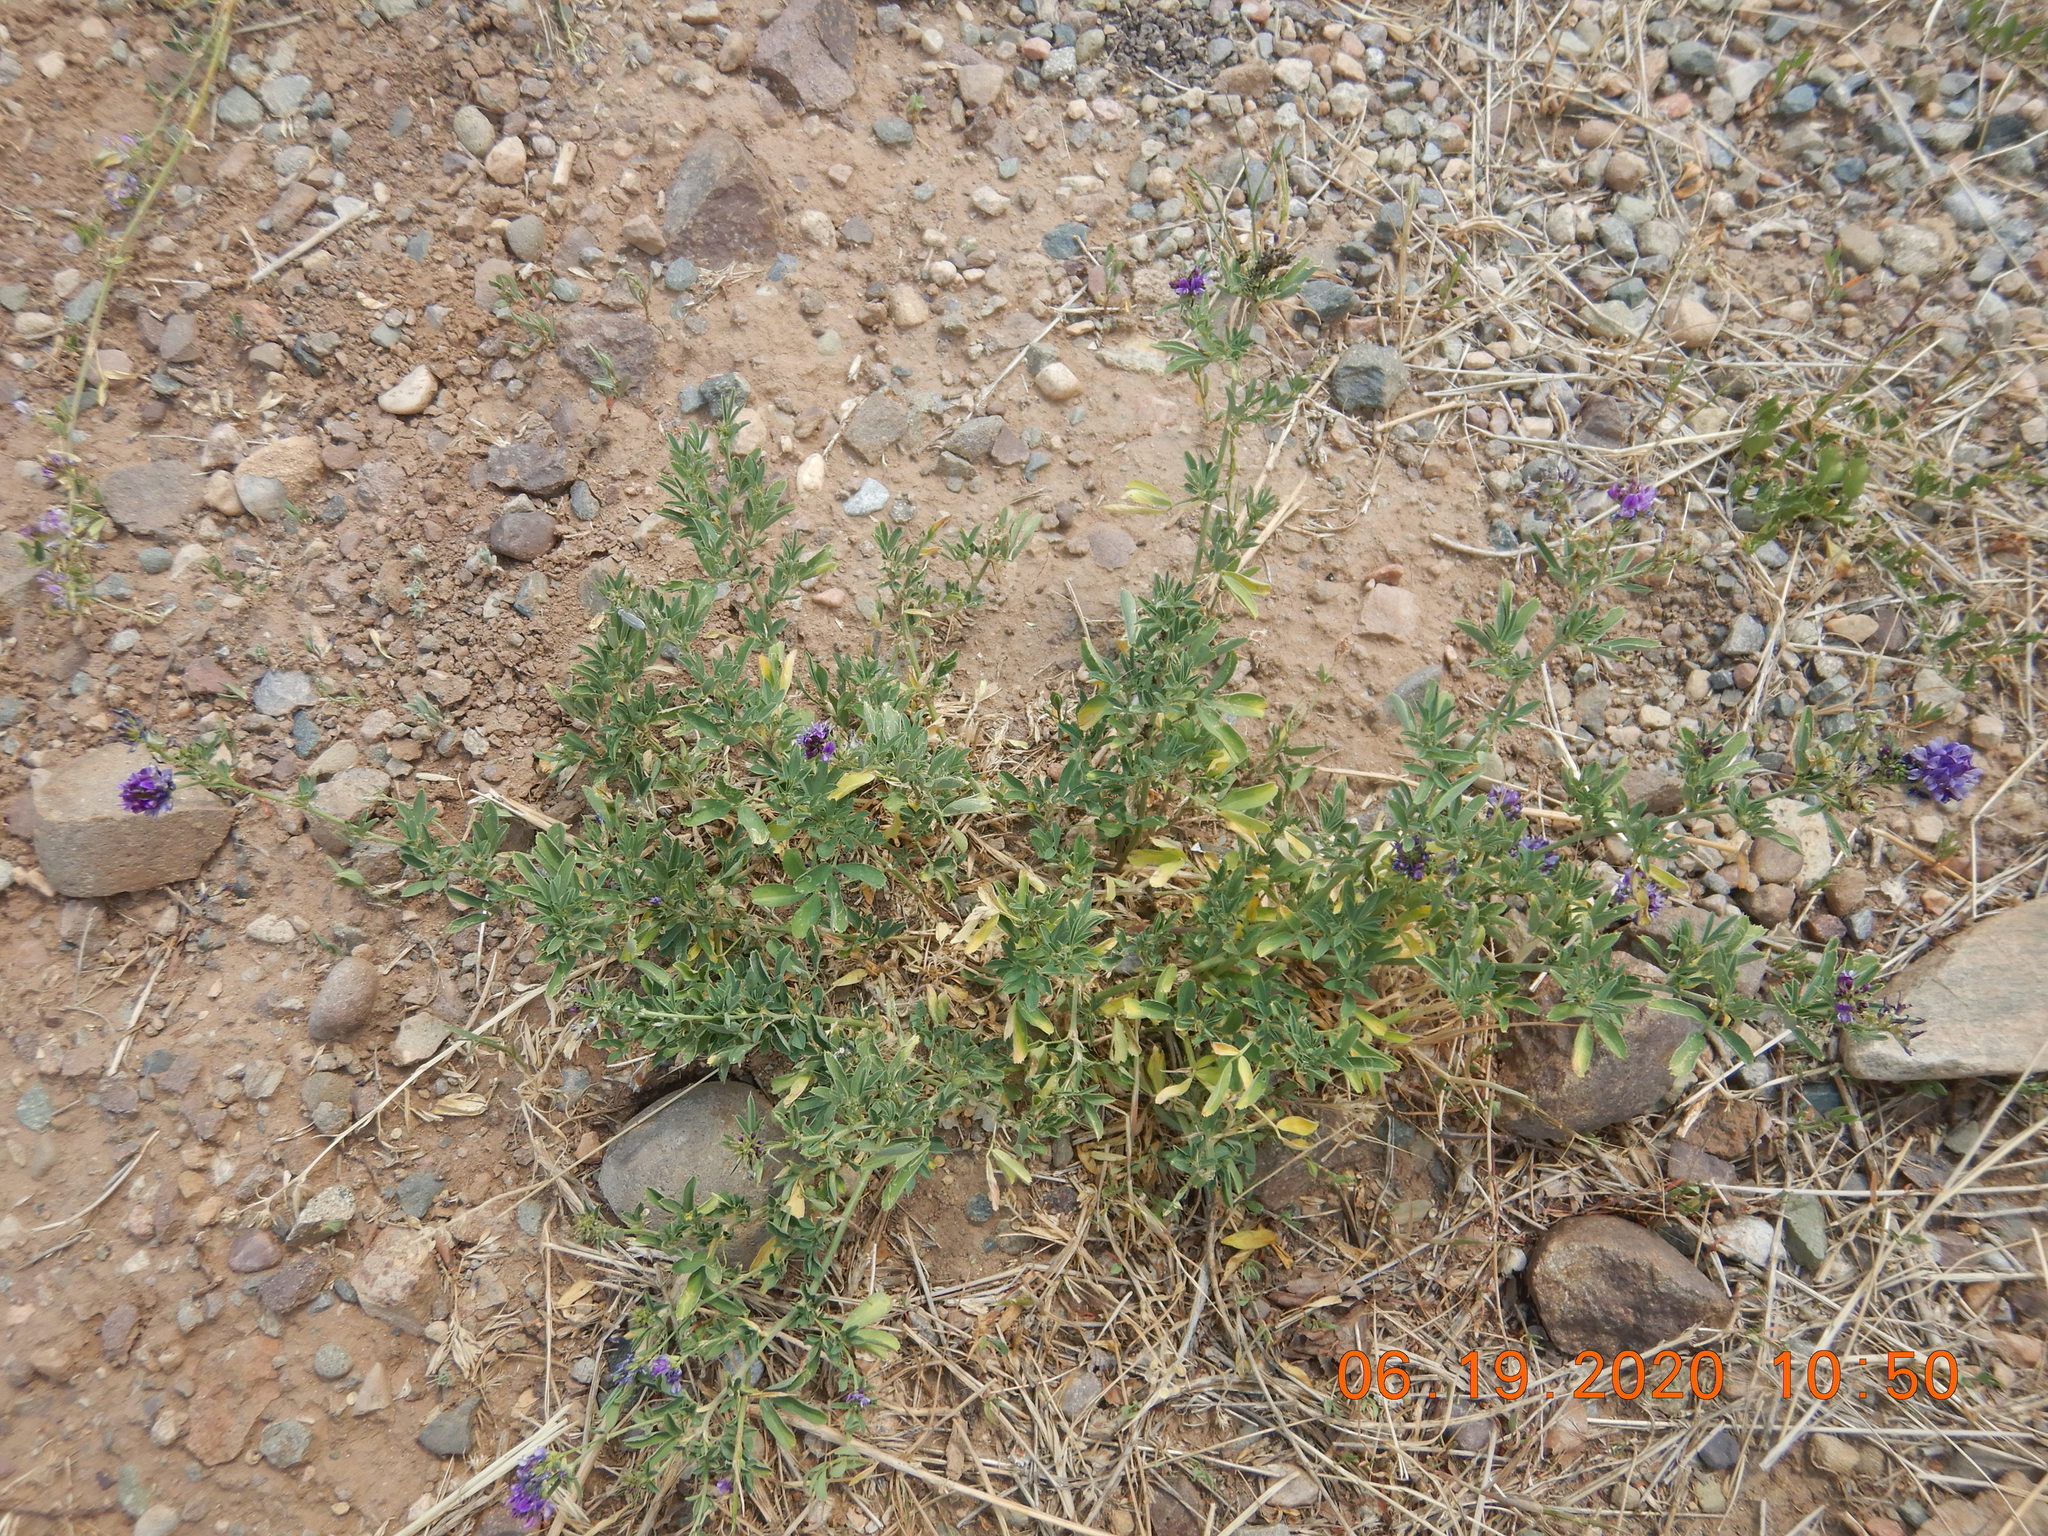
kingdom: Plantae
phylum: Tracheophyta
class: Magnoliopsida
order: Fabales
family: Fabaceae
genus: Medicago
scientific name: Medicago sativa
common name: Alfalfa
